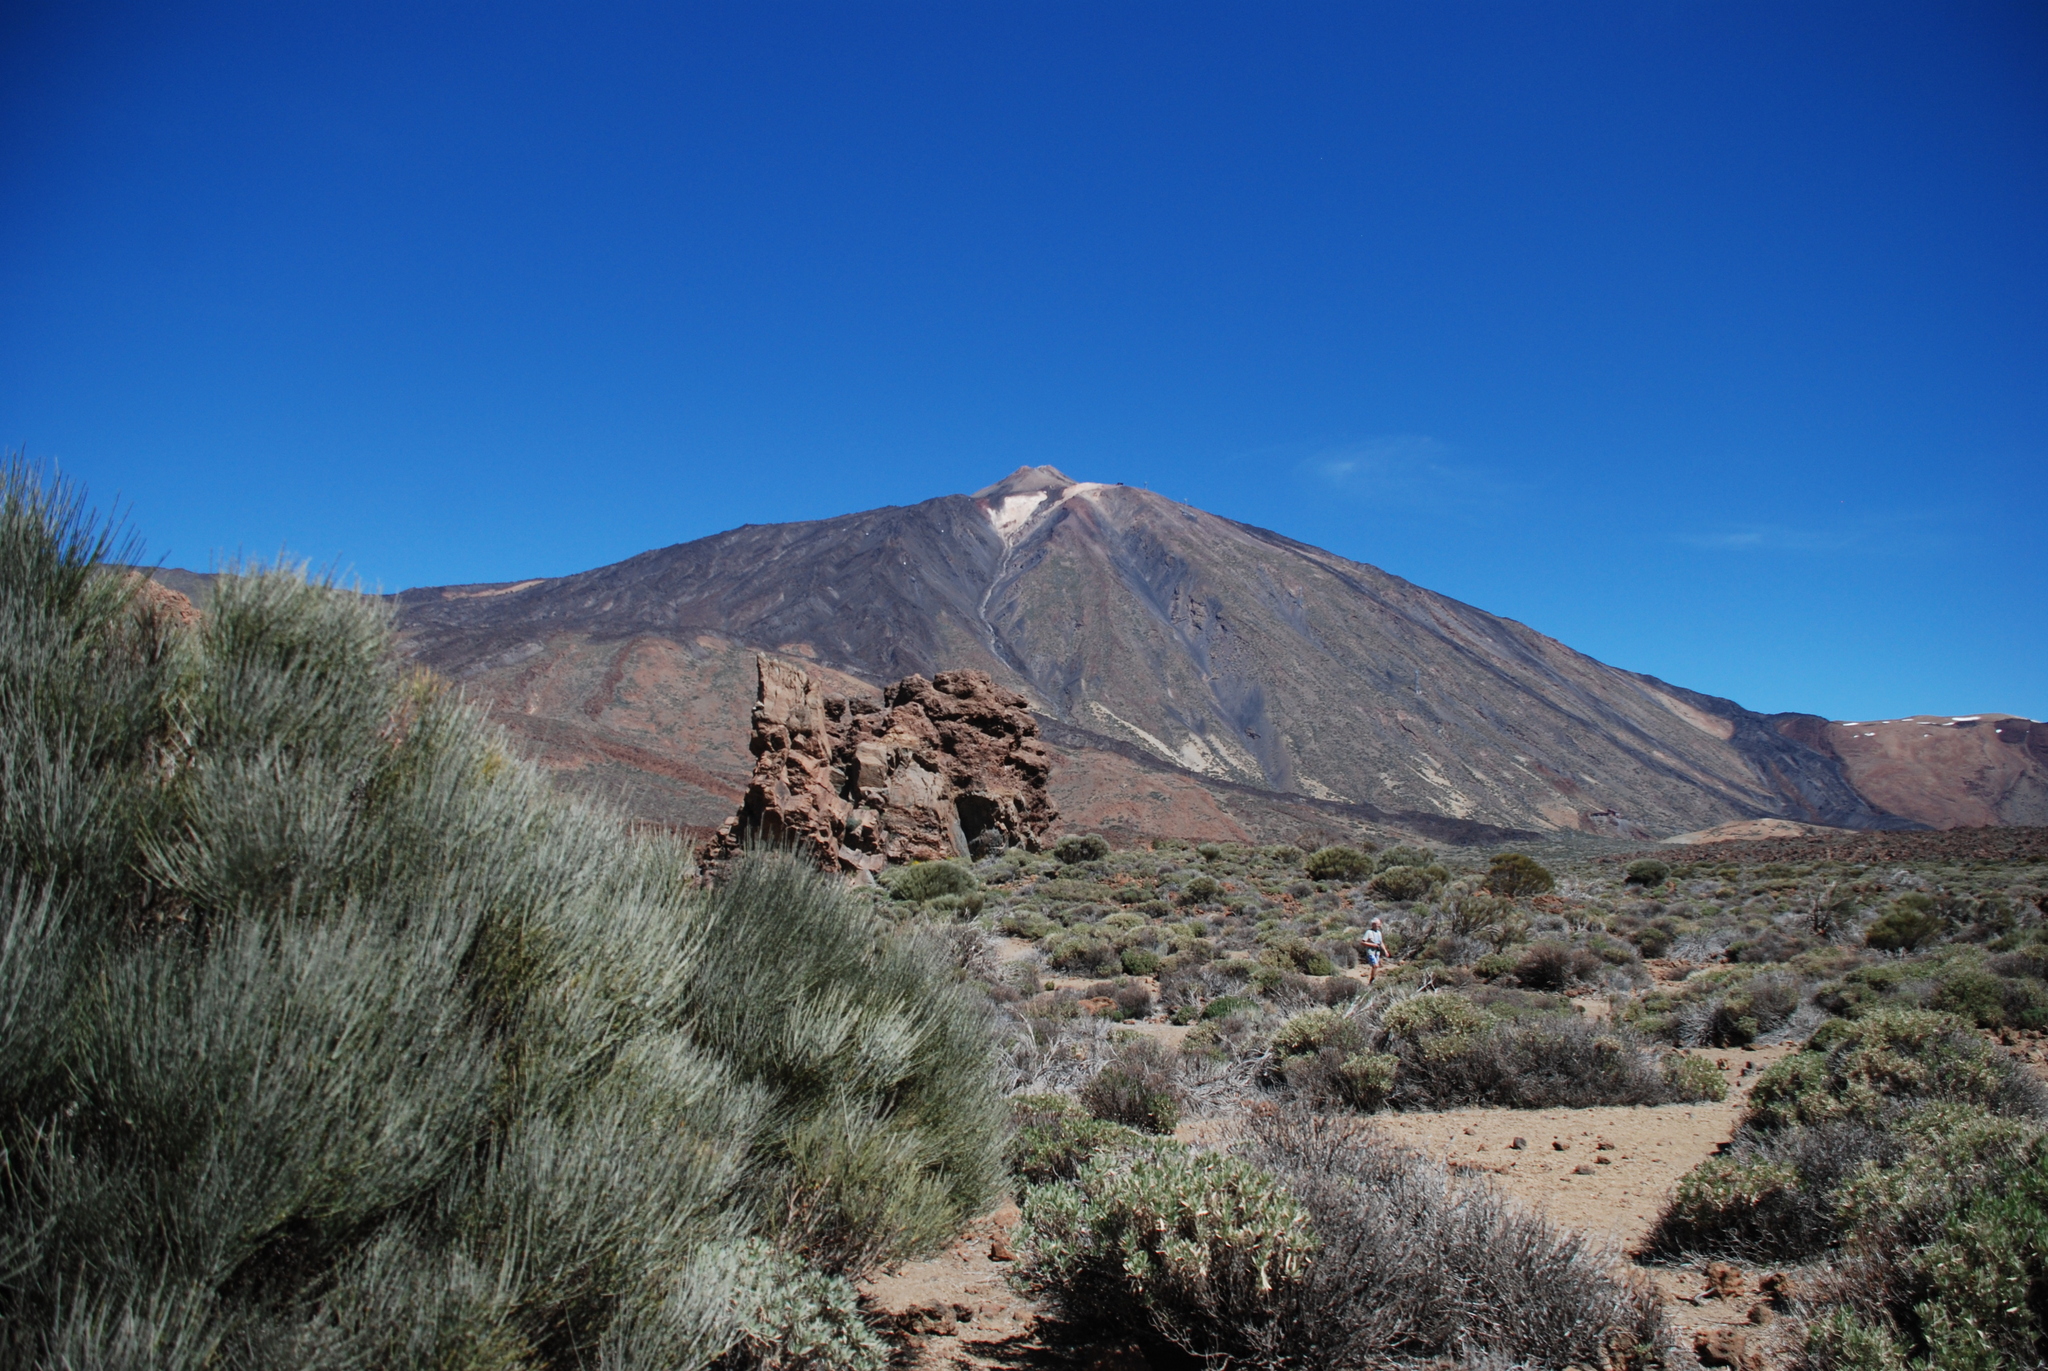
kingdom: Plantae
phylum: Tracheophyta
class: Magnoliopsida
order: Fabales
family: Fabaceae
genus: Cytisus
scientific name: Cytisus supranubius
